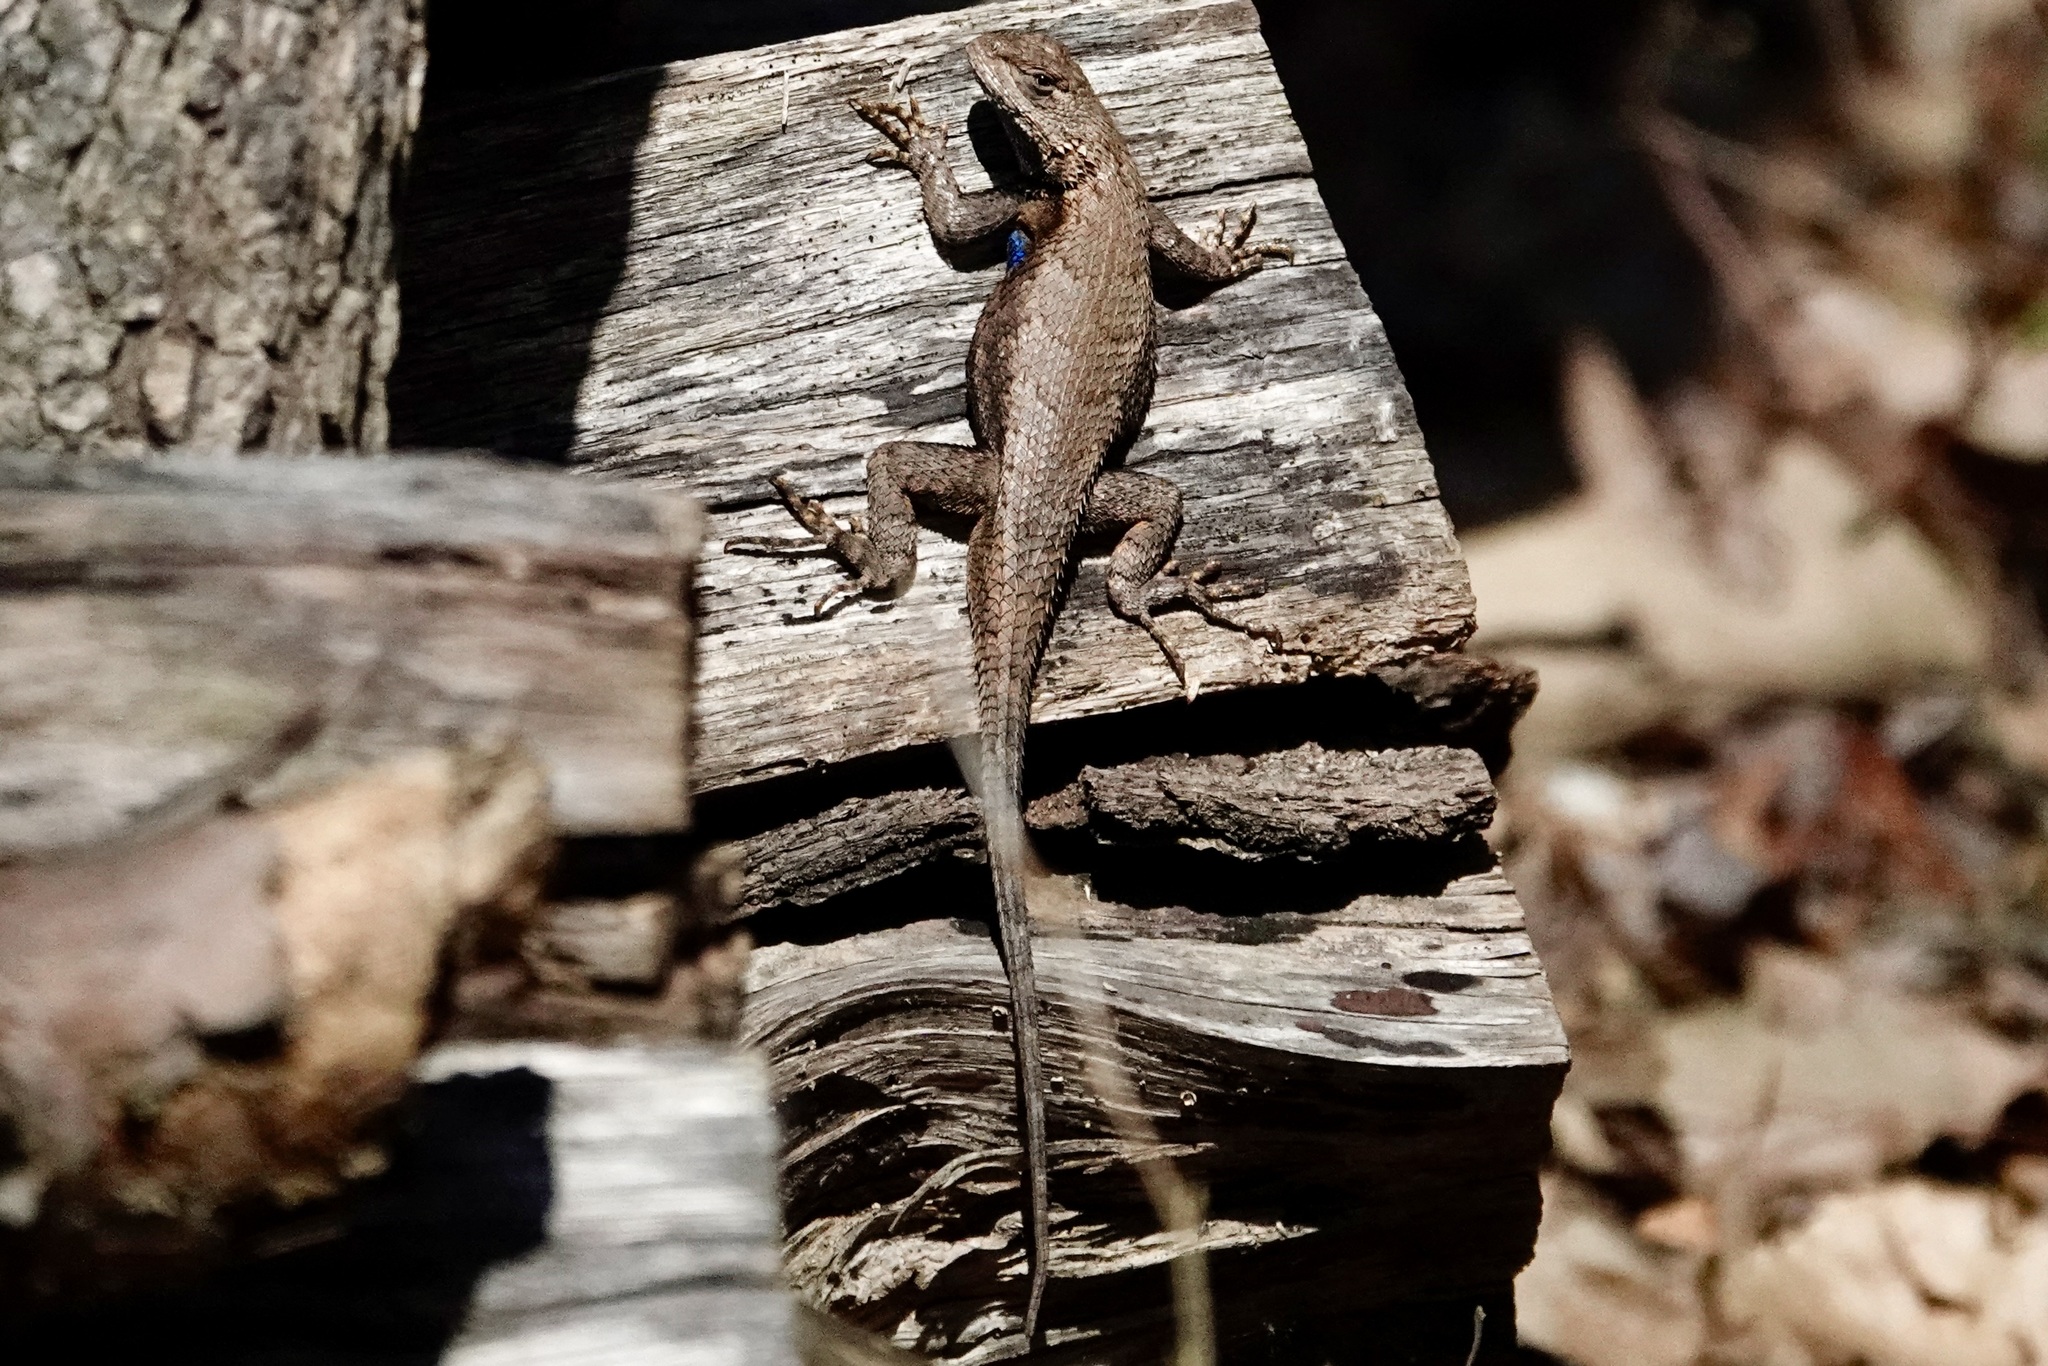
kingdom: Animalia
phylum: Chordata
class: Squamata
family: Phrynosomatidae
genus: Sceloporus
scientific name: Sceloporus undulatus
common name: Eastern fence lizard
